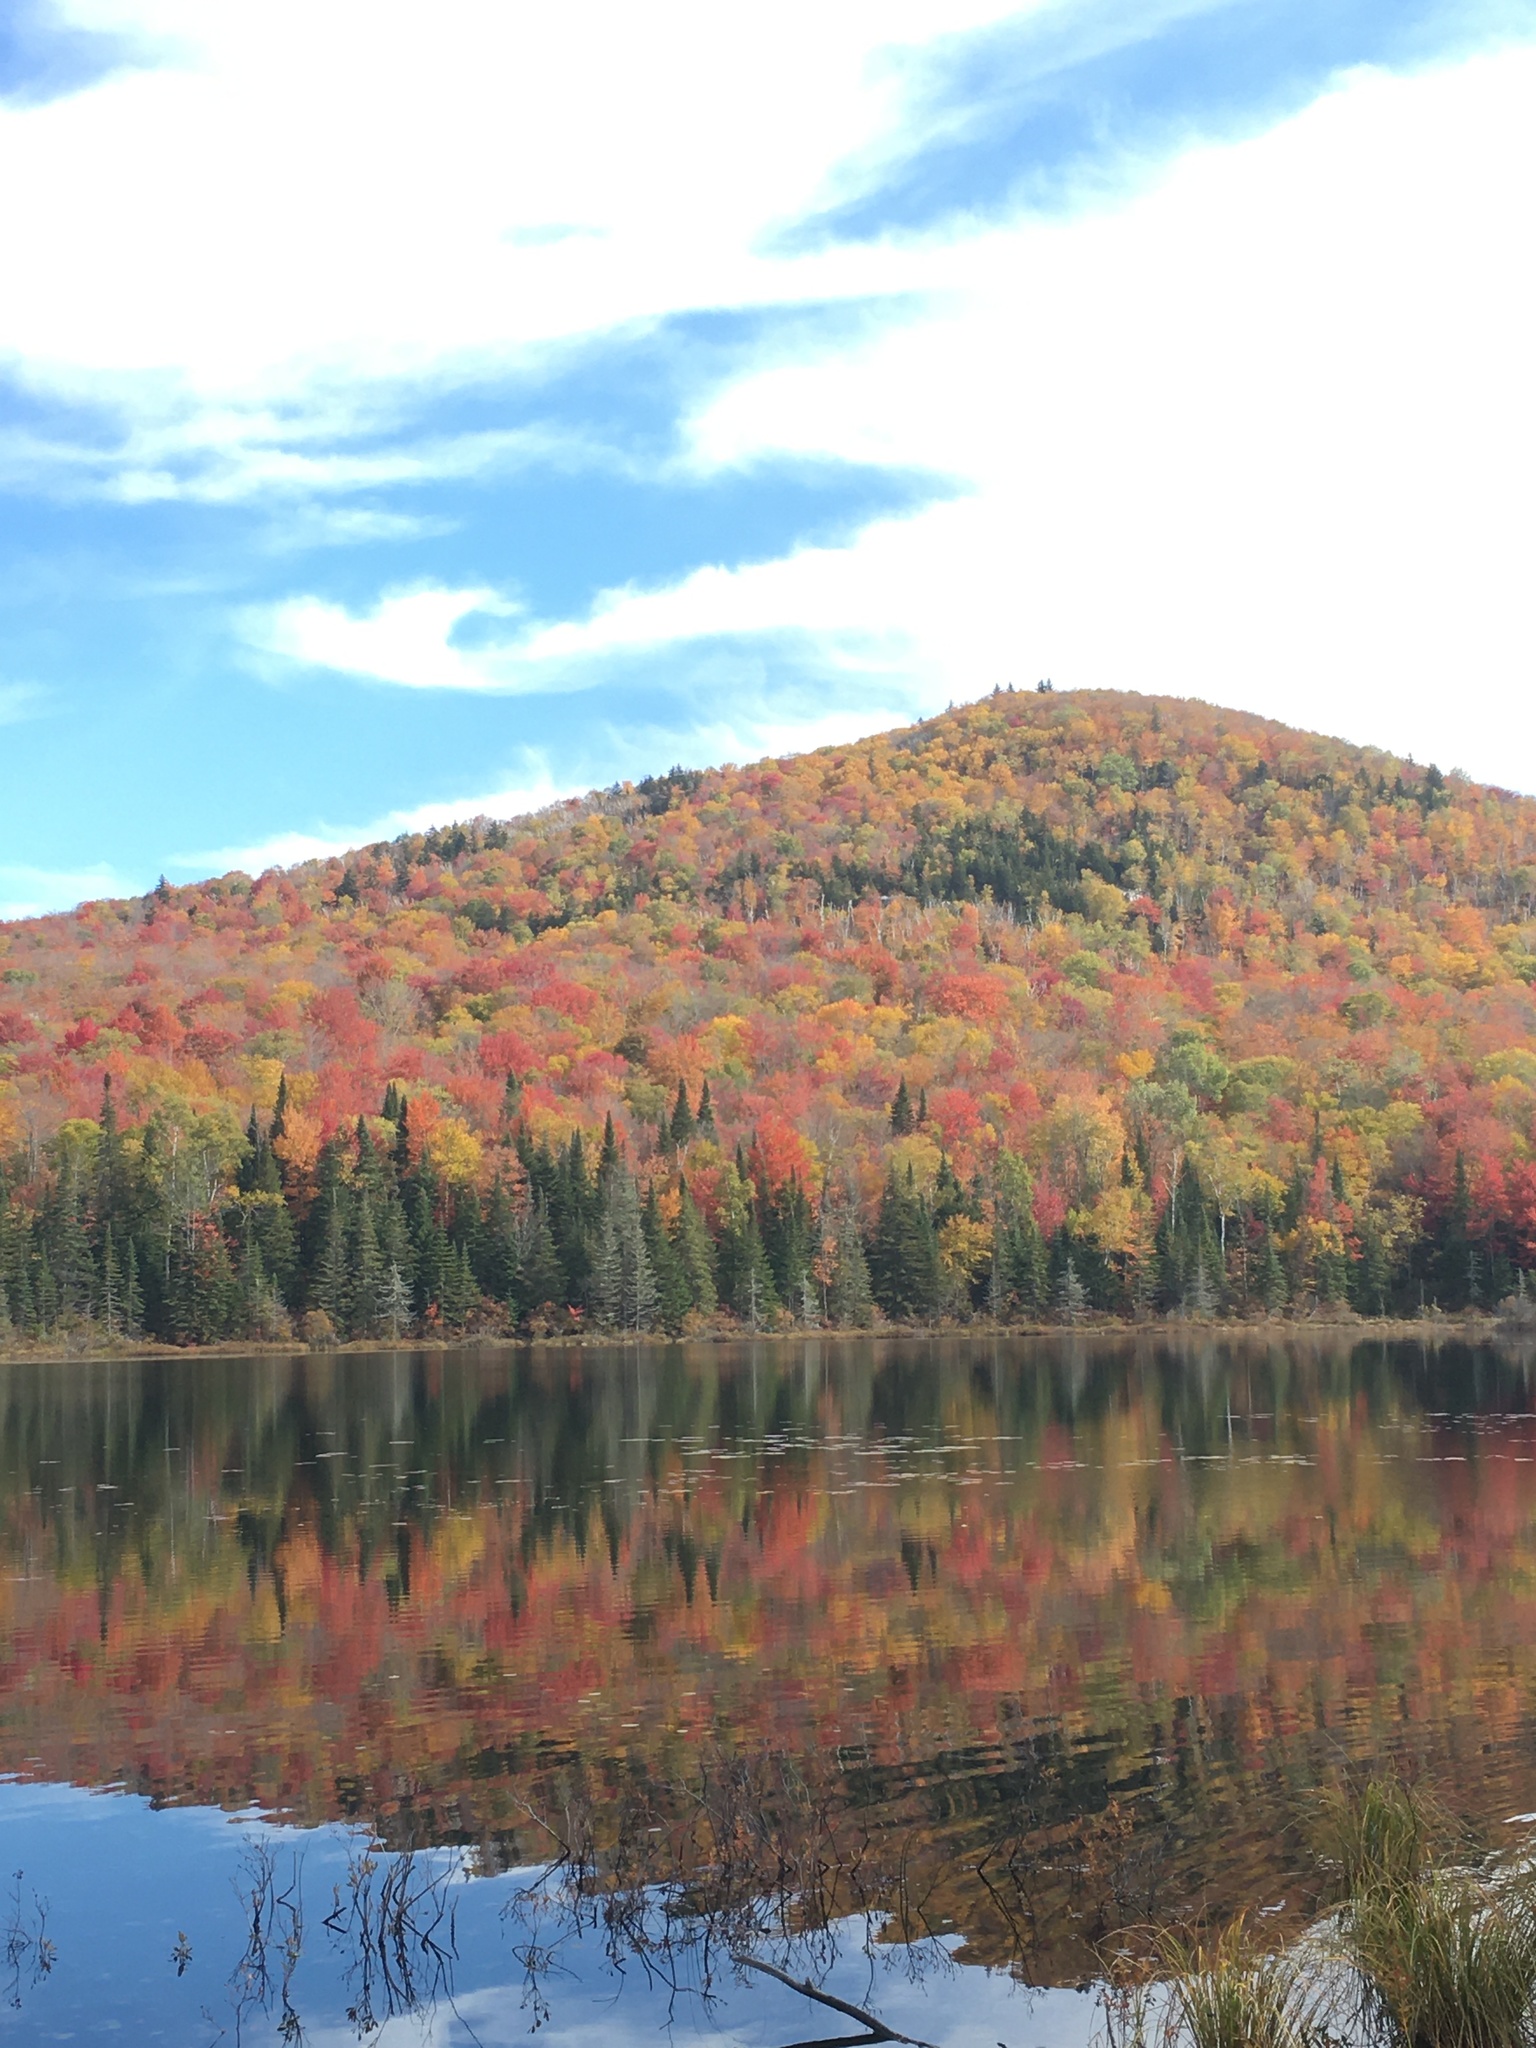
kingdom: Plantae
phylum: Tracheophyta
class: Magnoliopsida
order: Sapindales
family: Sapindaceae
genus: Acer
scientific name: Acer saccharum
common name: Sugar maple
